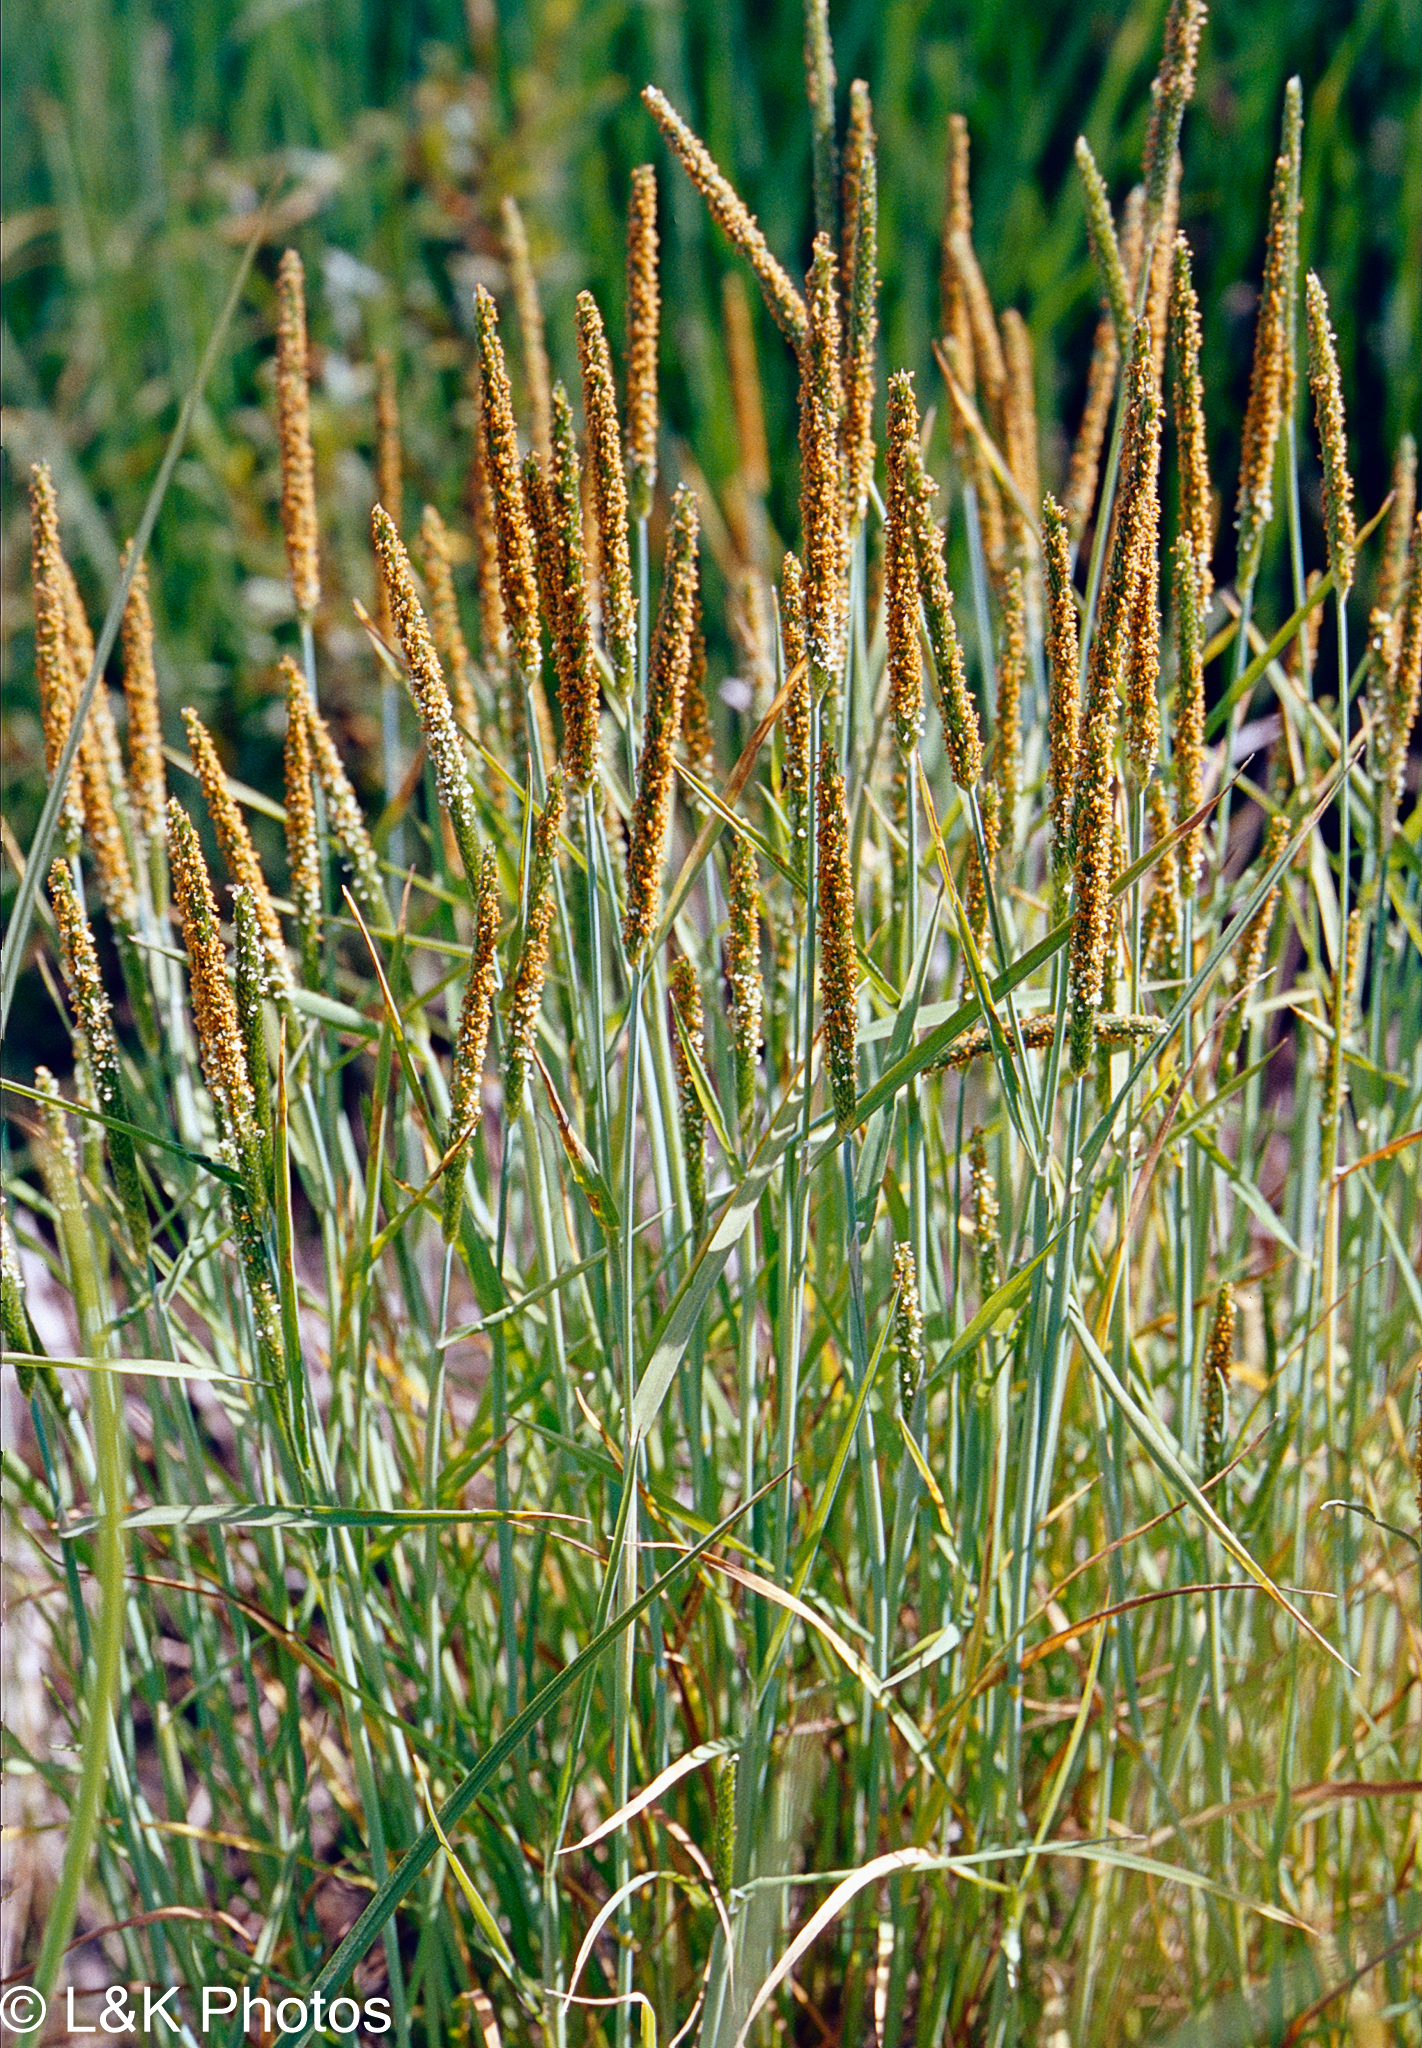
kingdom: Plantae
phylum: Tracheophyta
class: Liliopsida
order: Poales
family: Poaceae
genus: Alopecurus
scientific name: Alopecurus aequalis
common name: Orange foxtail
